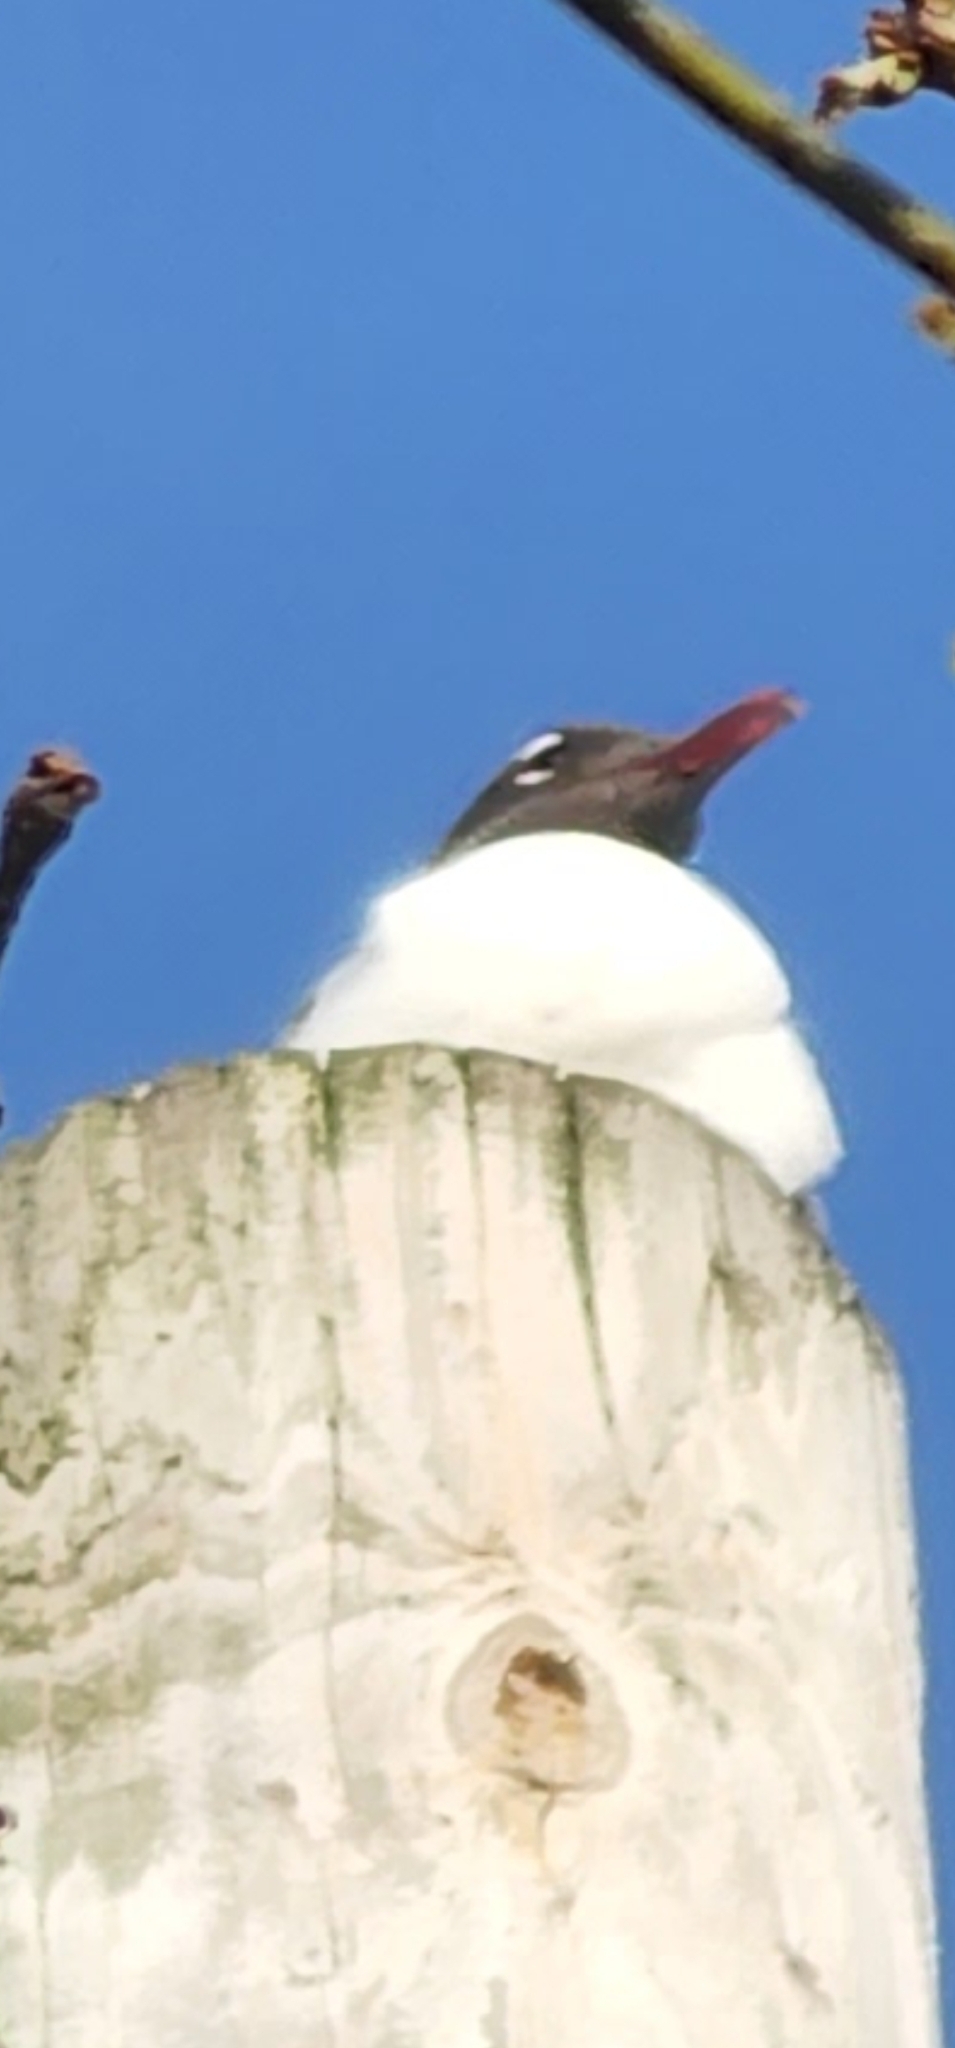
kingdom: Animalia
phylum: Chordata
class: Aves
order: Charadriiformes
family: Laridae
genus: Leucophaeus
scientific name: Leucophaeus atricilla
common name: Laughing gull
